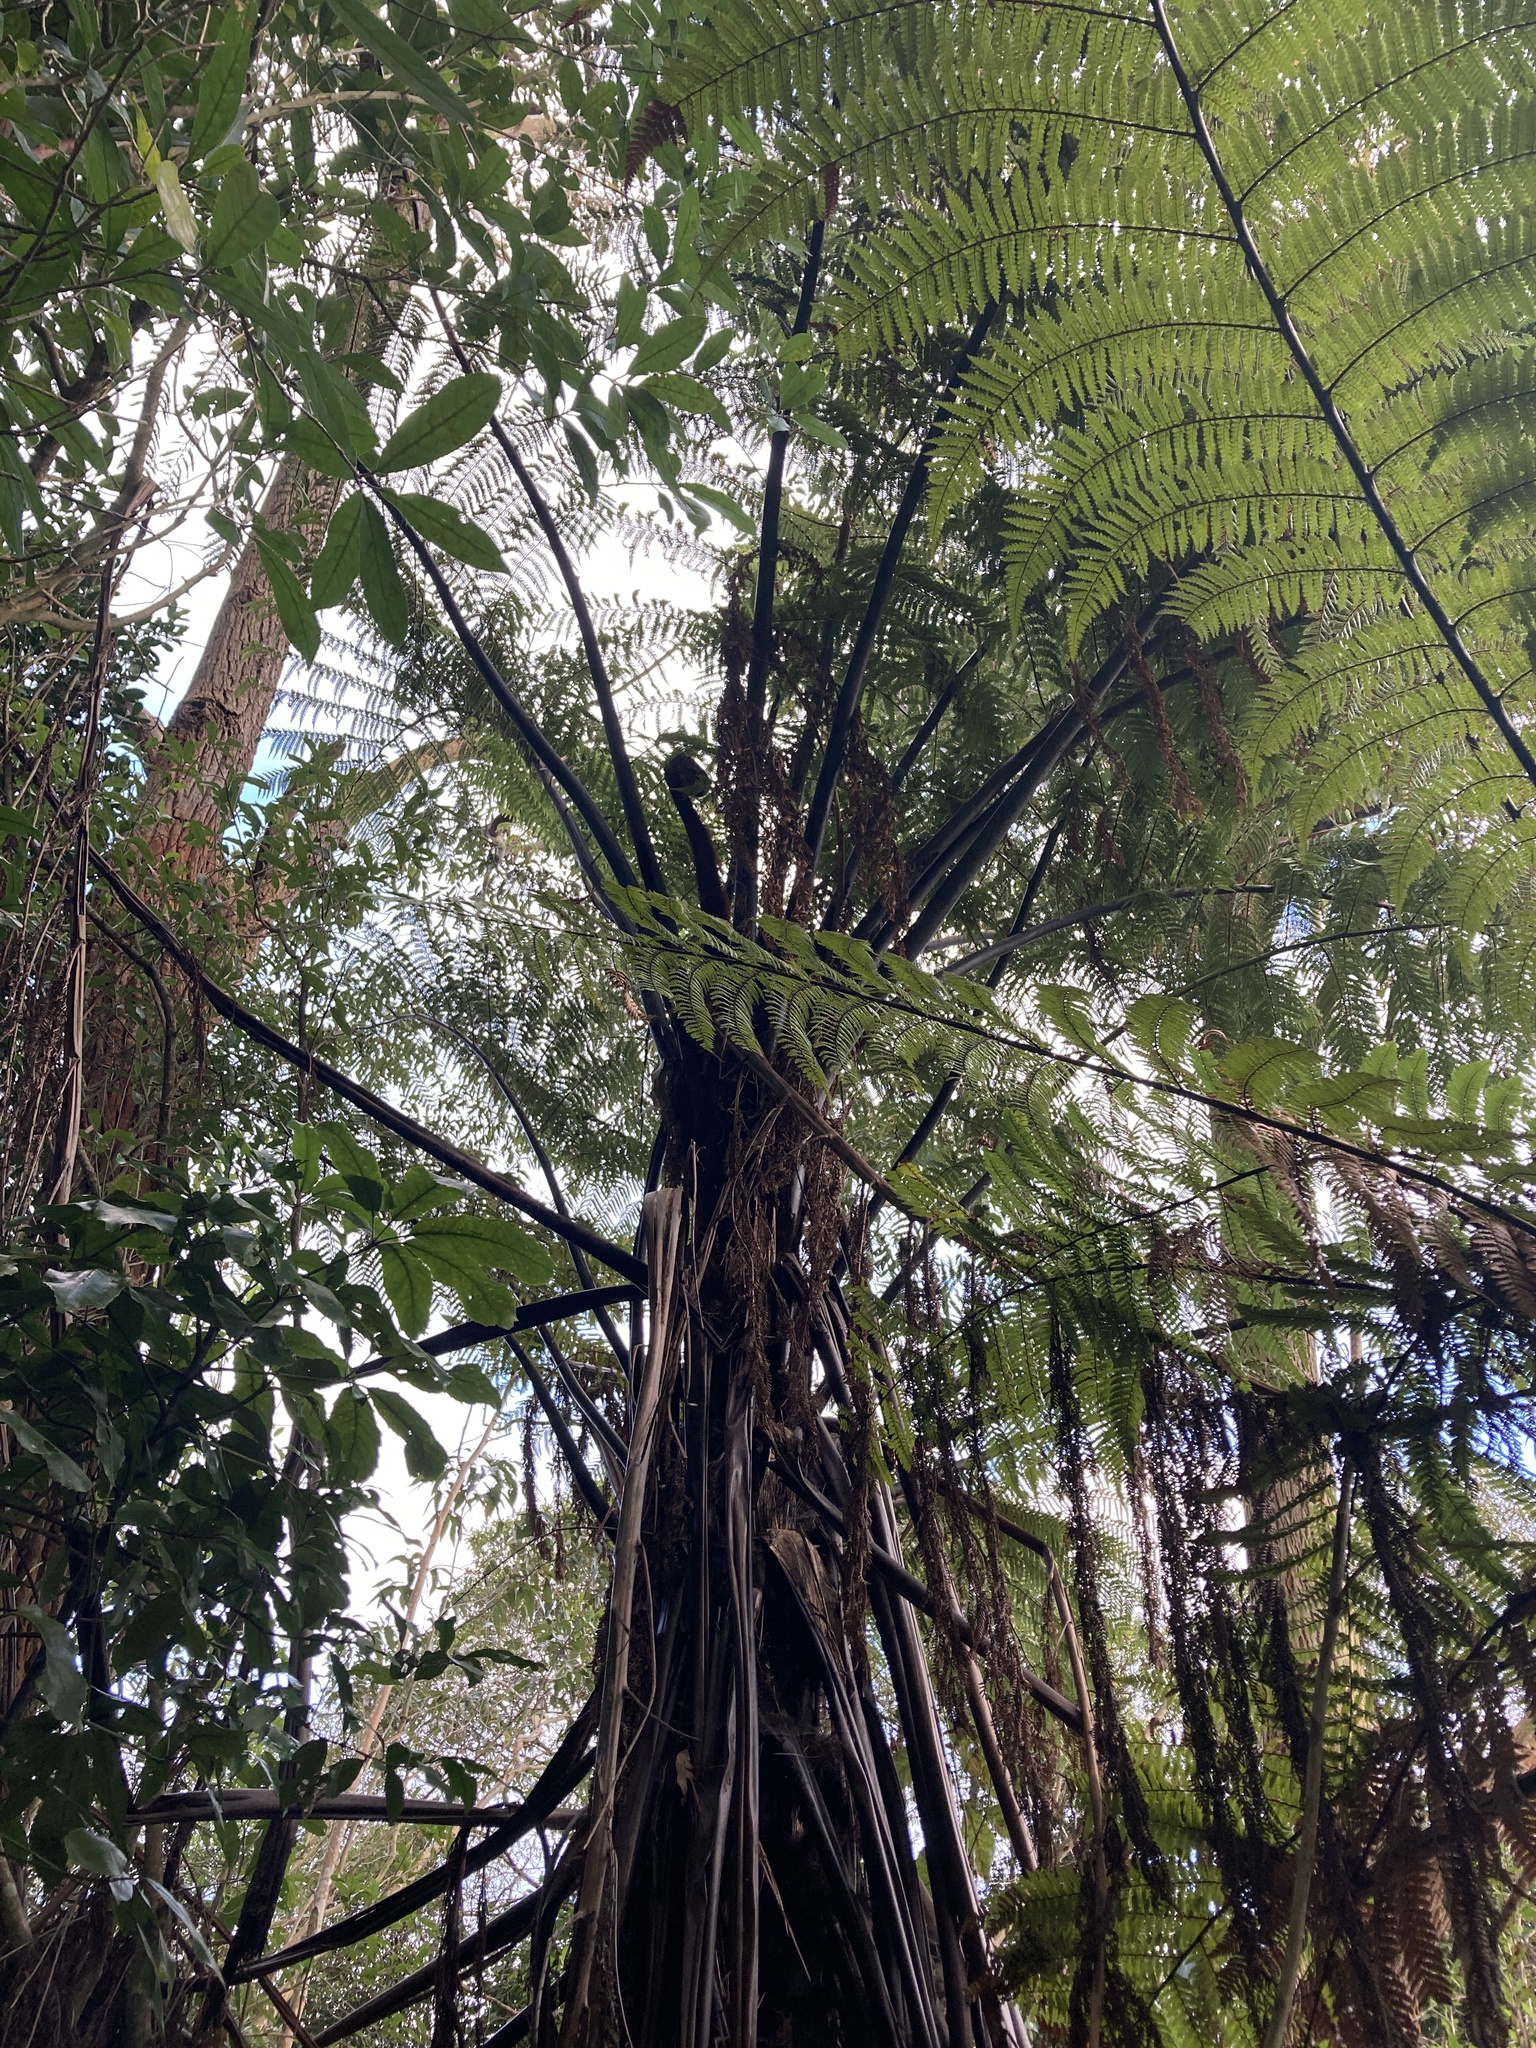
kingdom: Plantae
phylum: Tracheophyta
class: Polypodiopsida
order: Cyatheales
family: Cyatheaceae
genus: Sphaeropteris
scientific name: Sphaeropteris medullaris
